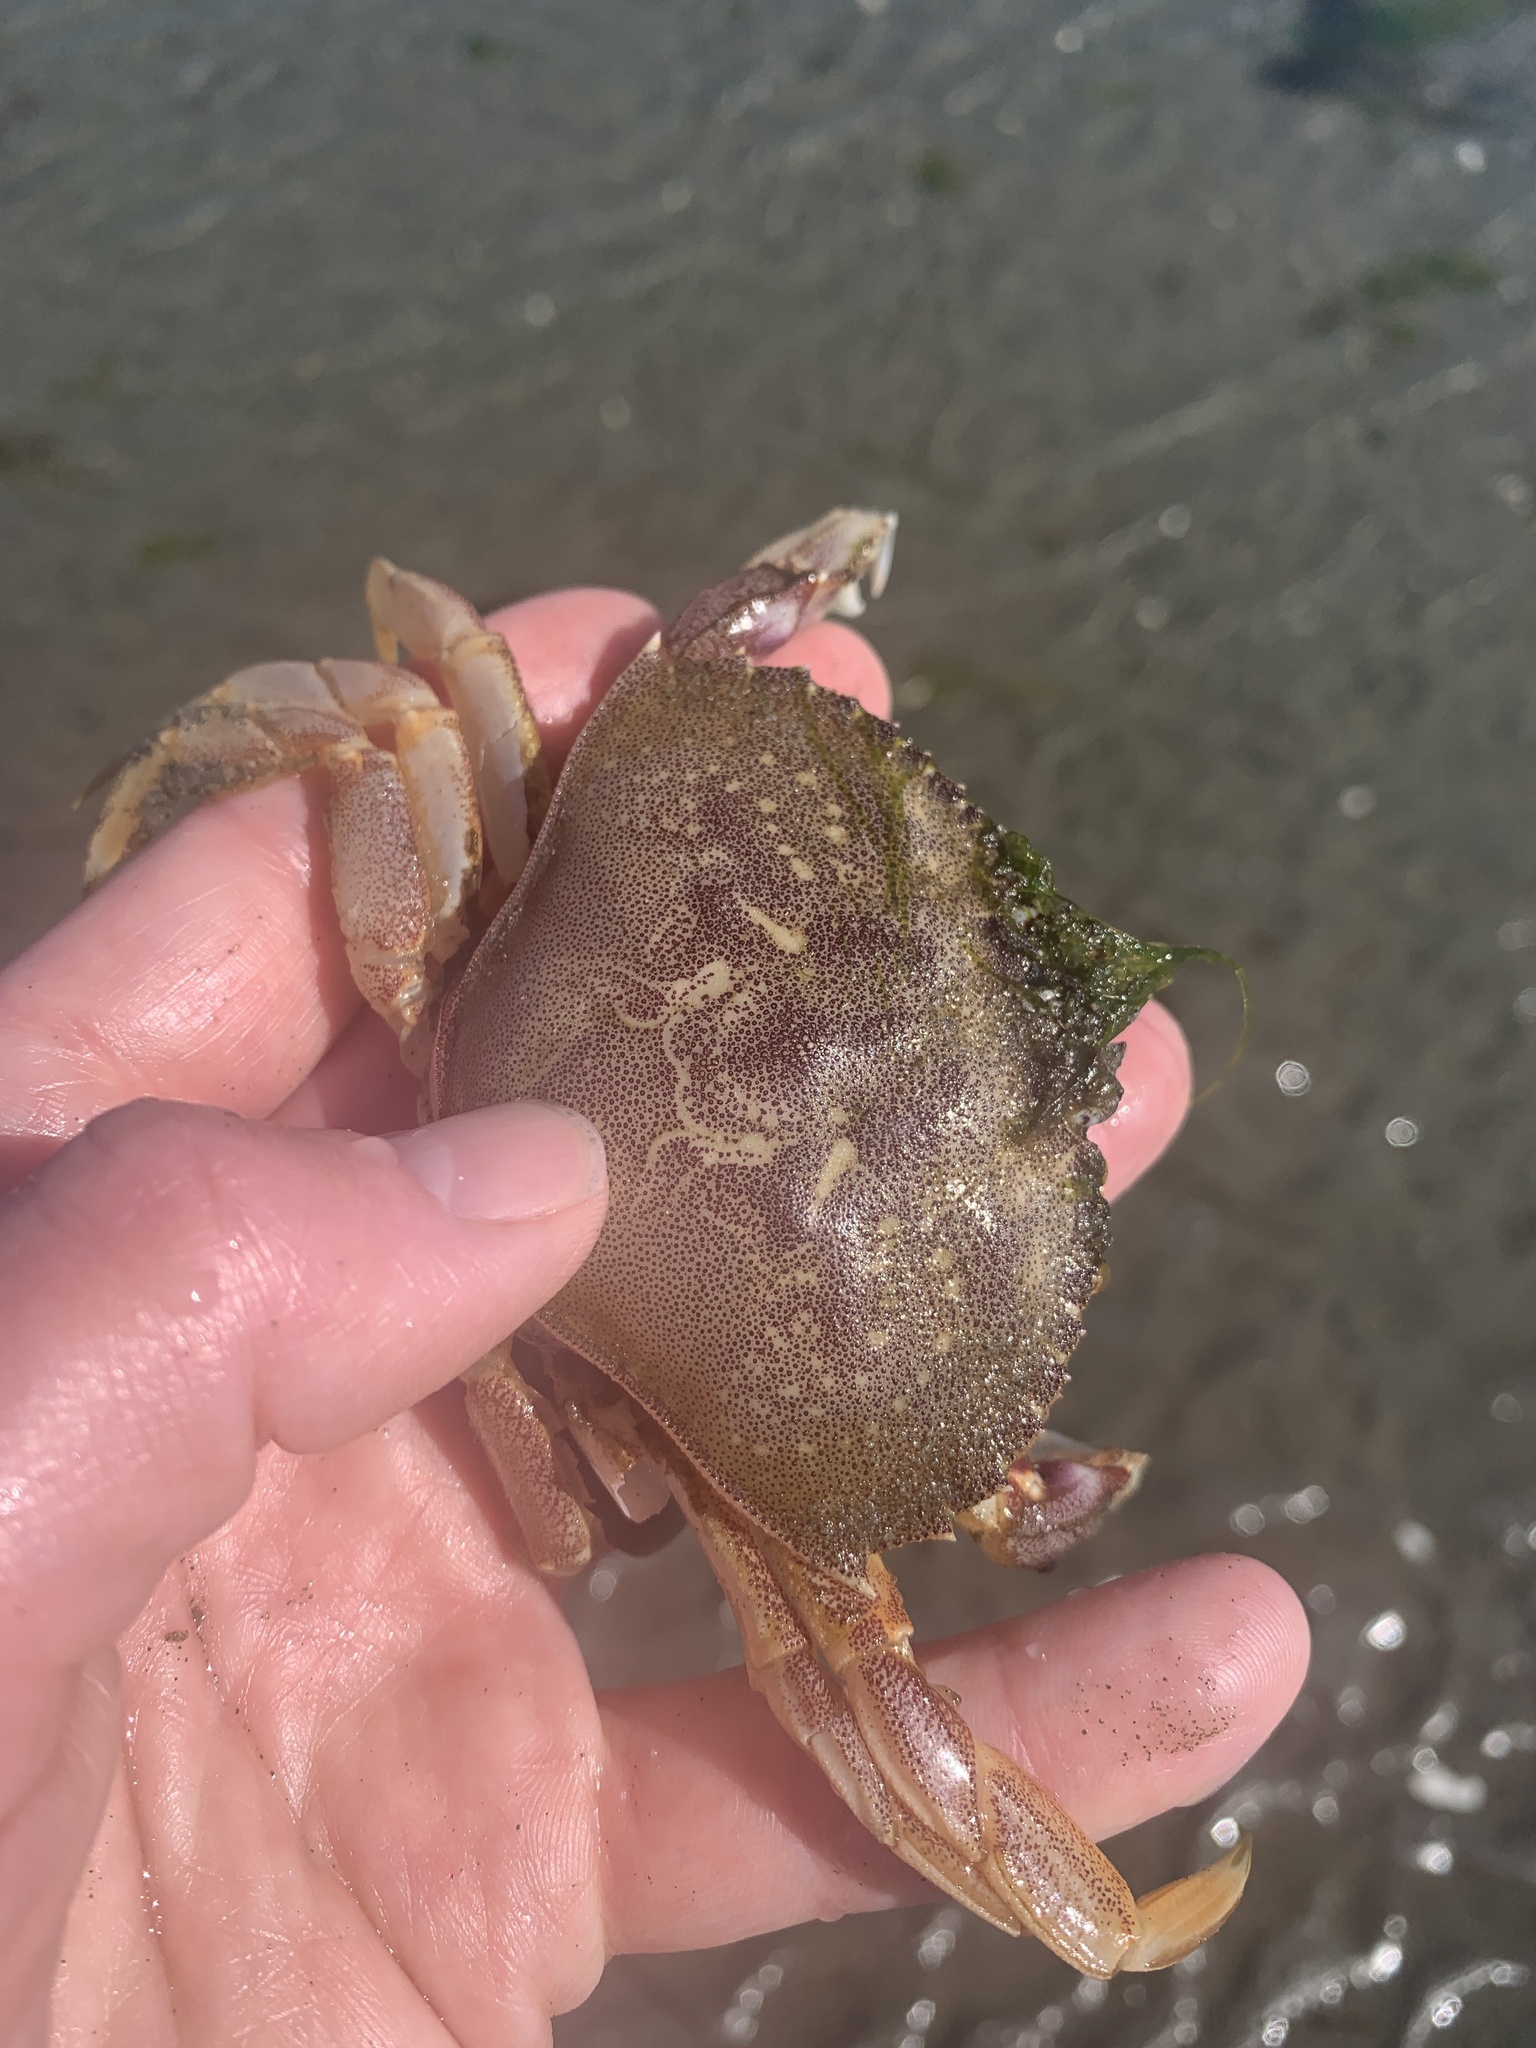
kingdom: Animalia
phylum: Arthropoda
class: Malacostraca
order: Decapoda
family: Cancridae
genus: Metacarcinus
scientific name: Metacarcinus magister
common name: Californian crab
